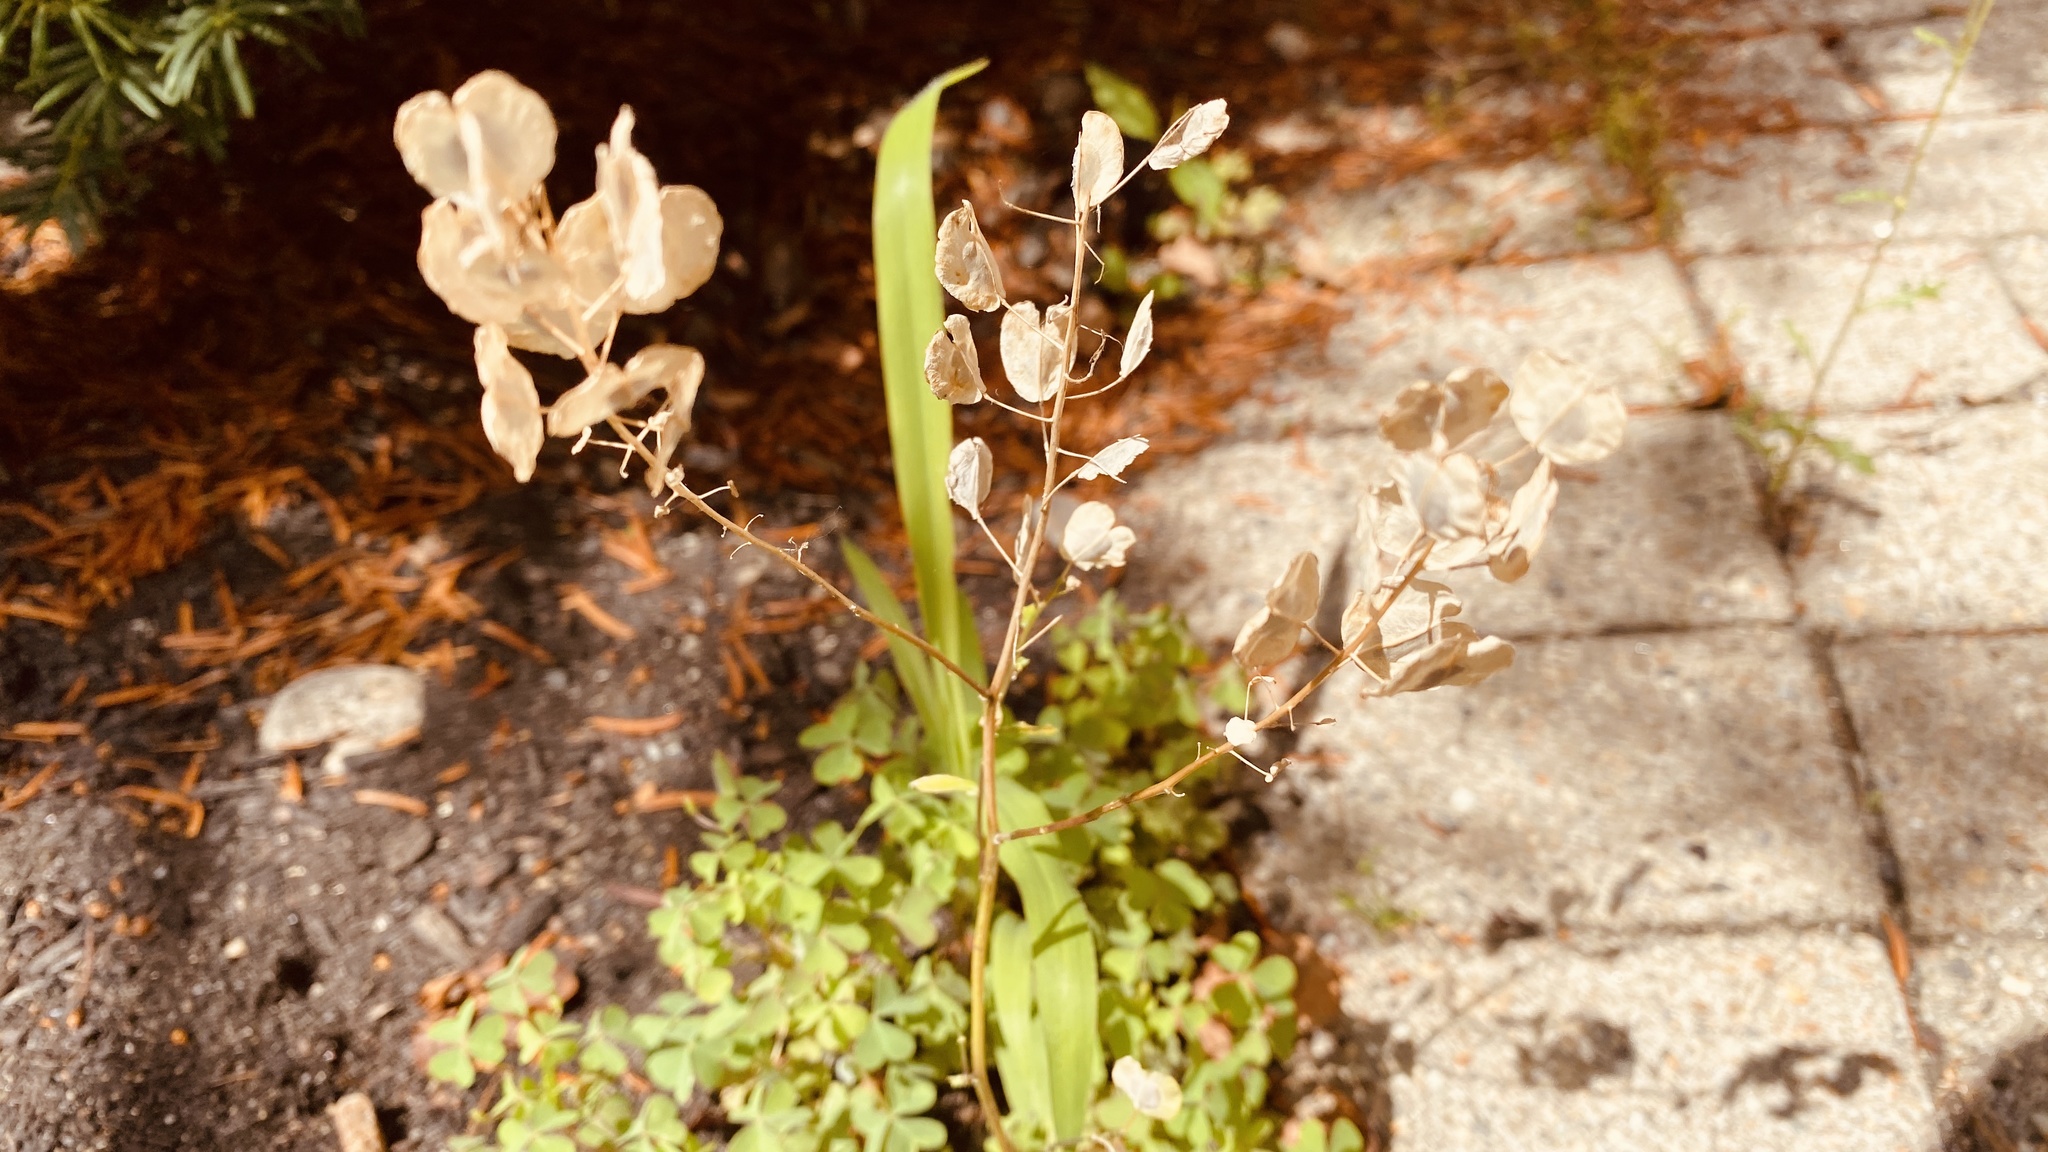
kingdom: Plantae
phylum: Tracheophyta
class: Magnoliopsida
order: Brassicales
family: Brassicaceae
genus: Thlaspi
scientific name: Thlaspi arvense
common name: Field pennycress
